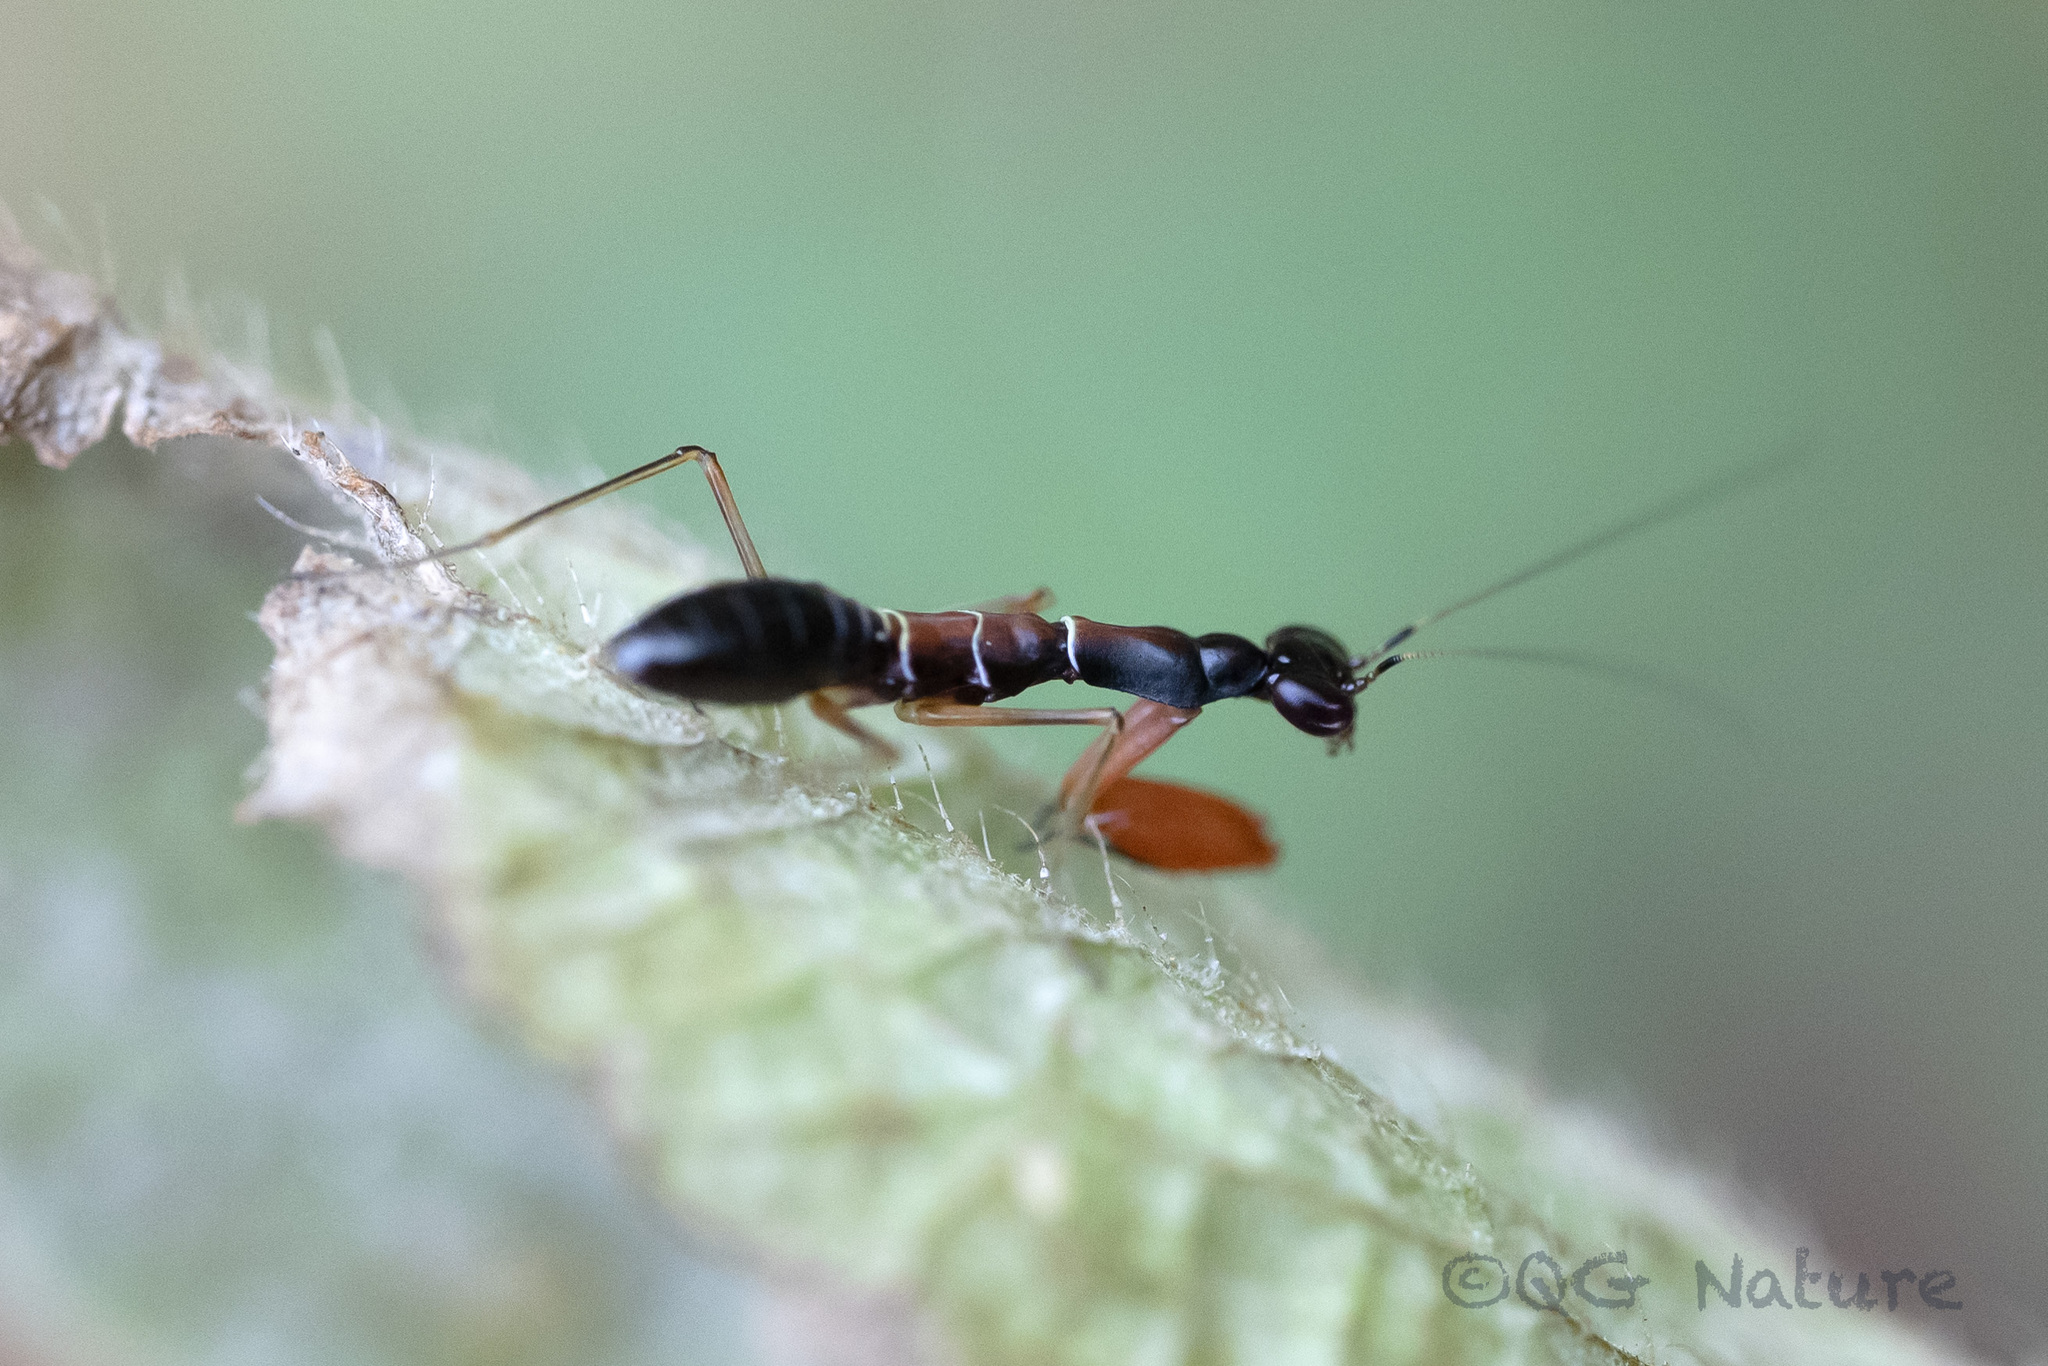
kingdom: Animalia
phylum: Arthropoda
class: Insecta
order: Mantodea
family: Hymenopodidae
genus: Odontomantis
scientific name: Odontomantis sinensis
